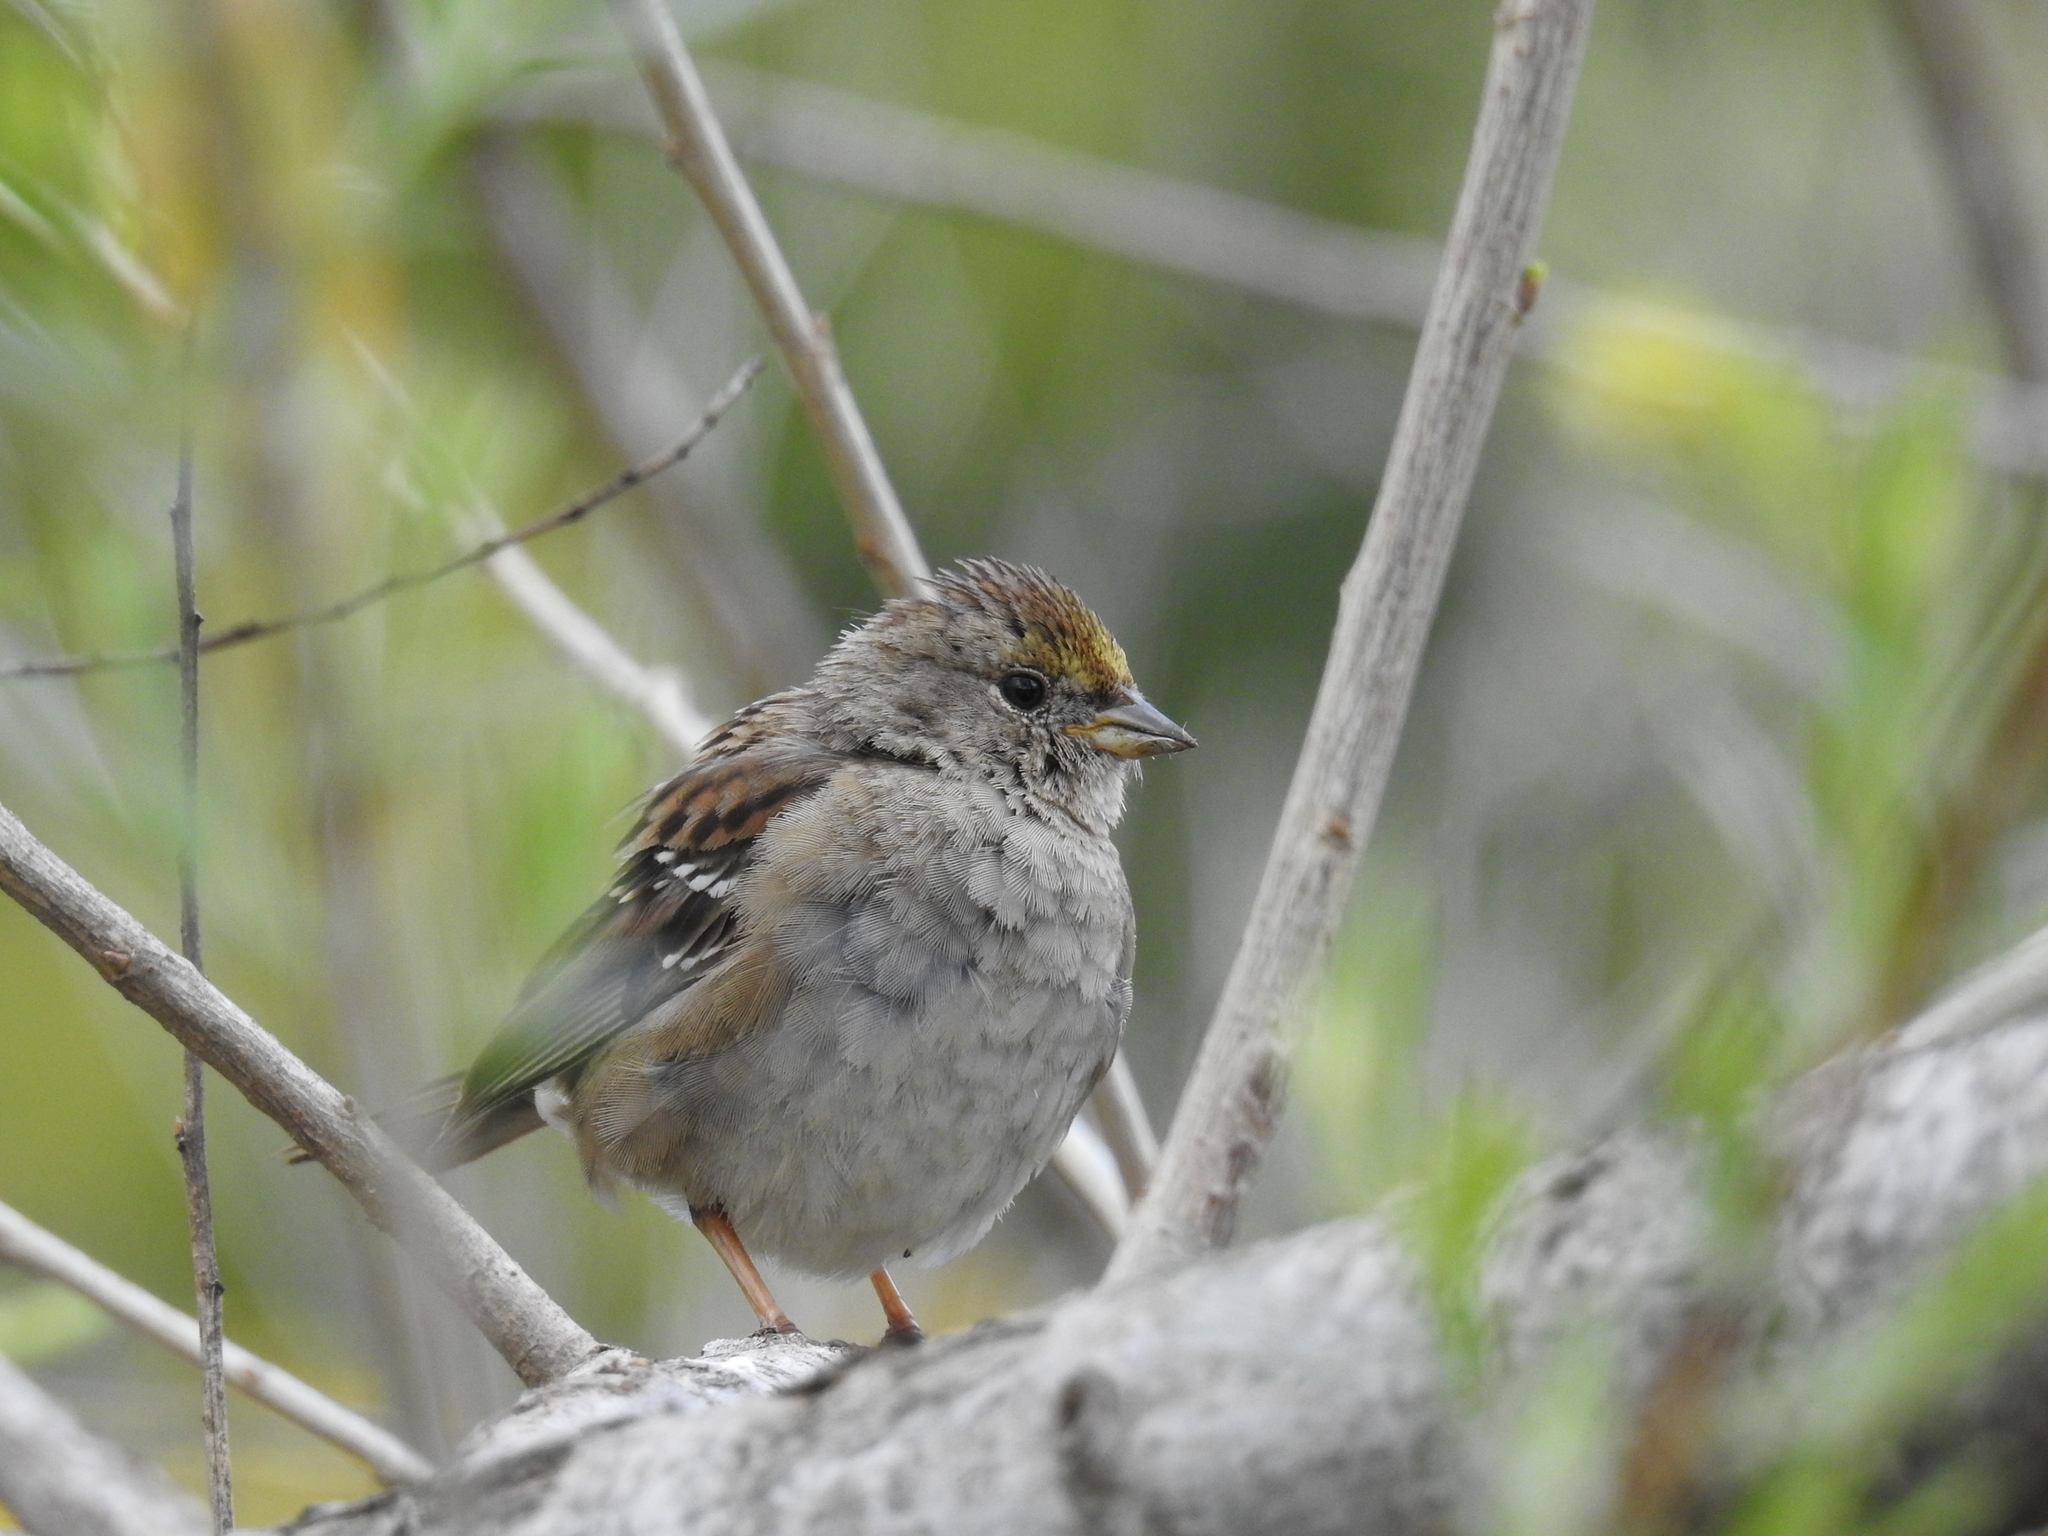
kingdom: Animalia
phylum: Chordata
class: Aves
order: Passeriformes
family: Passerellidae
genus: Zonotrichia
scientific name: Zonotrichia atricapilla
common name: Golden-crowned sparrow
